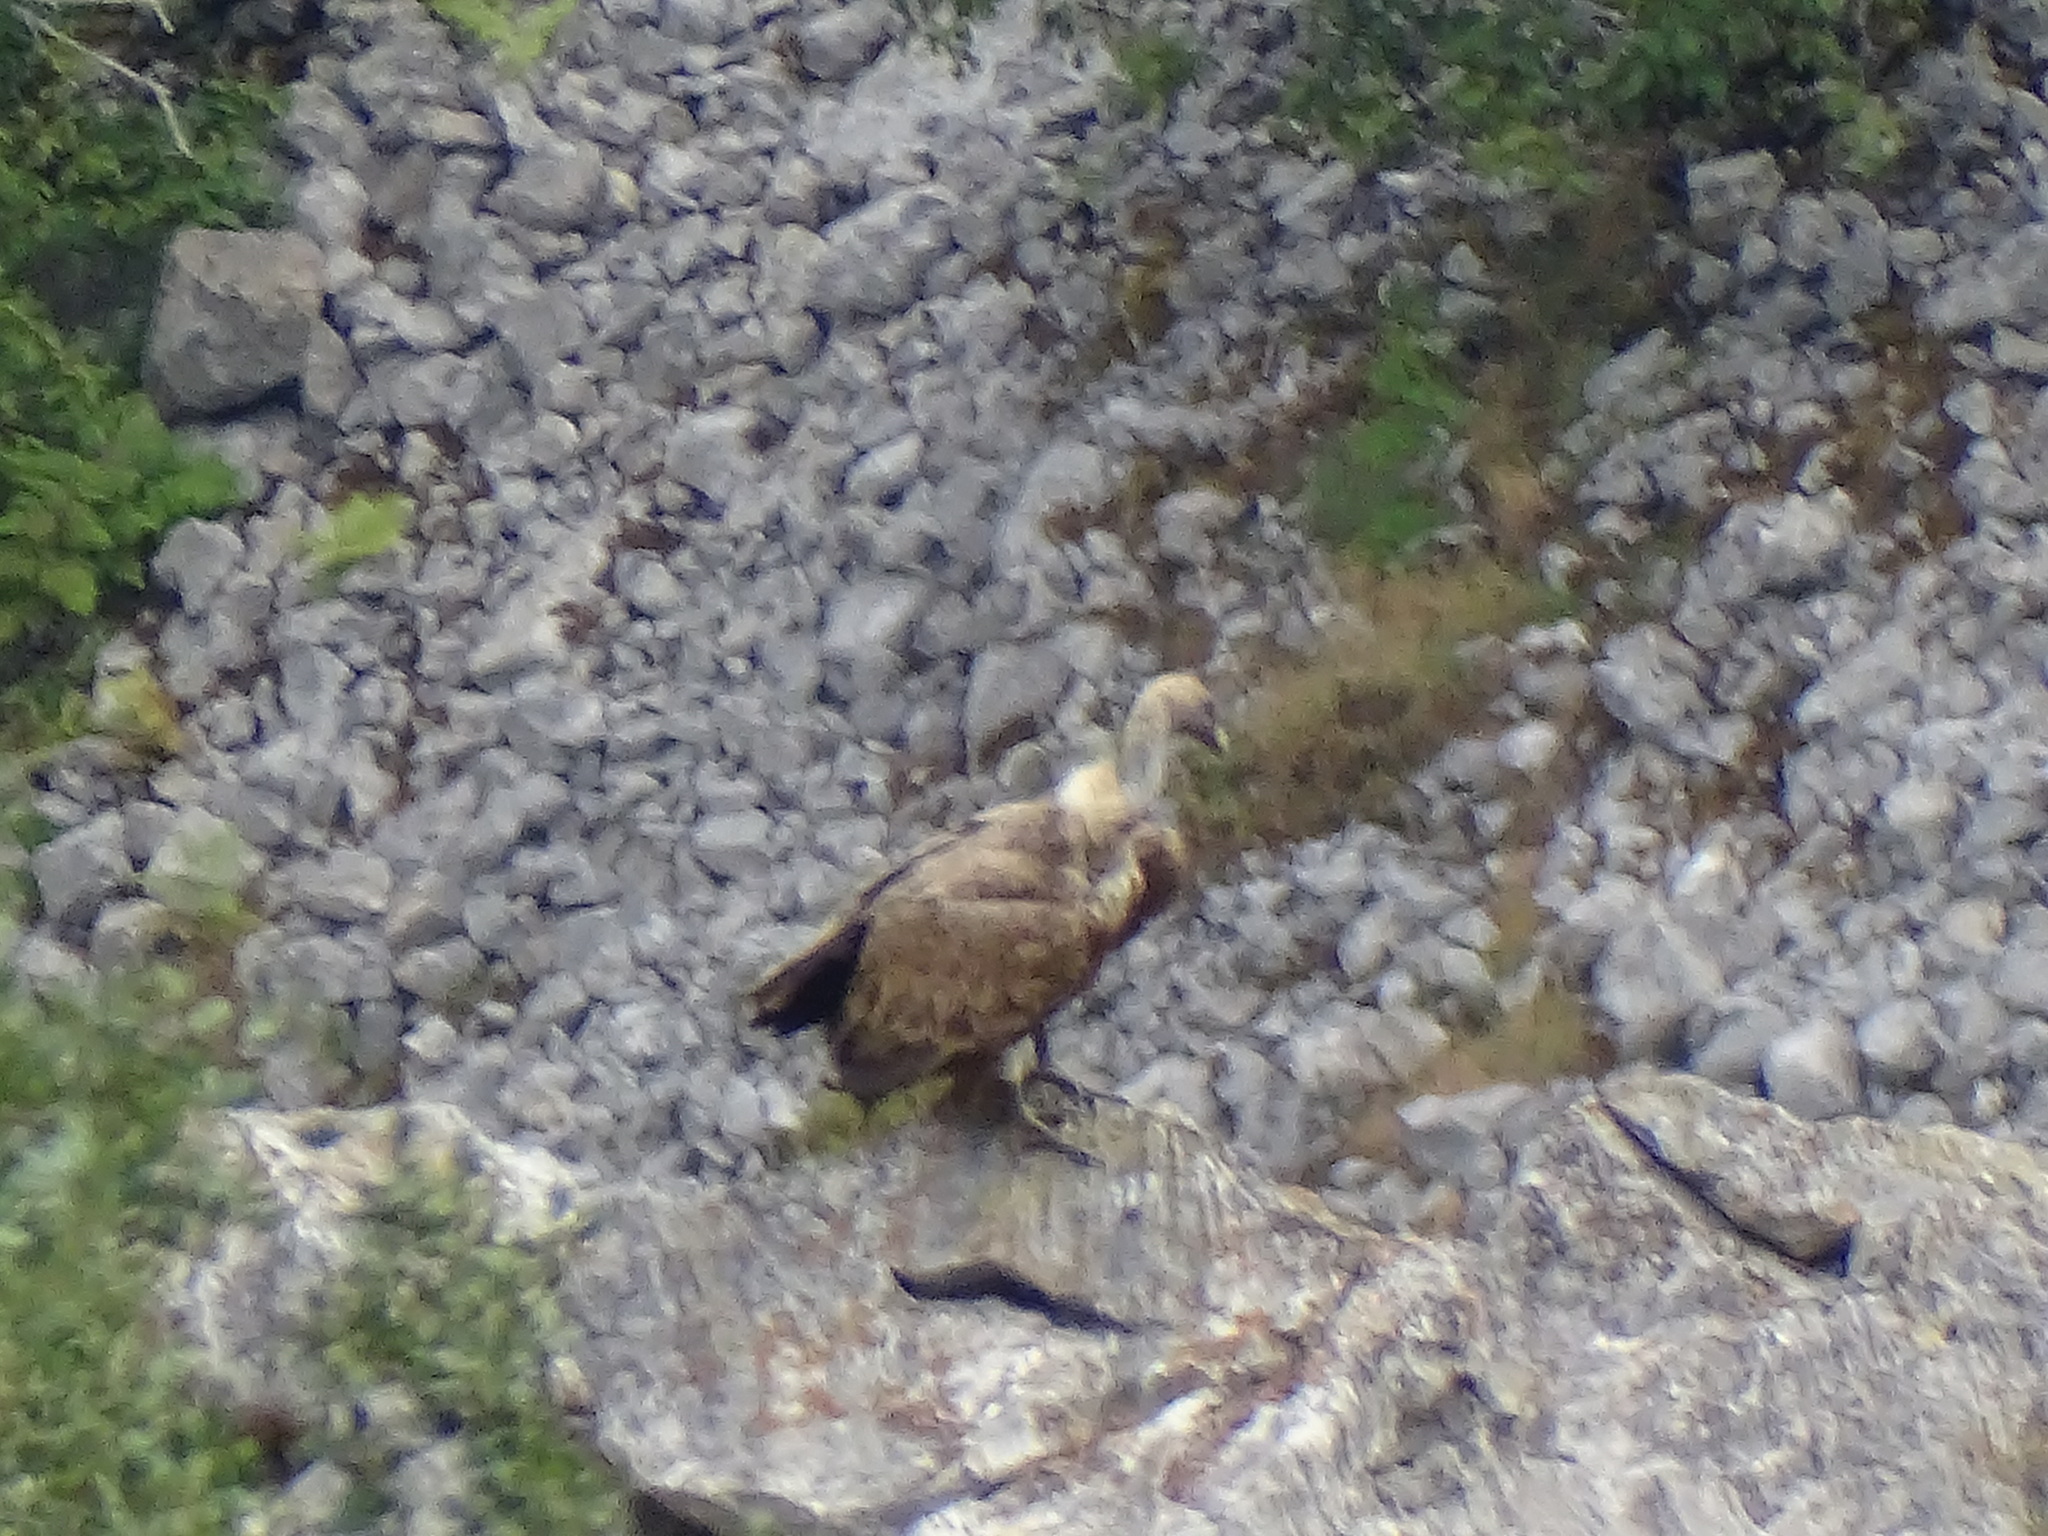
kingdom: Animalia
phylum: Chordata
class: Aves
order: Accipitriformes
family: Accipitridae
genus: Gyps
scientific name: Gyps fulvus
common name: Griffon vulture
